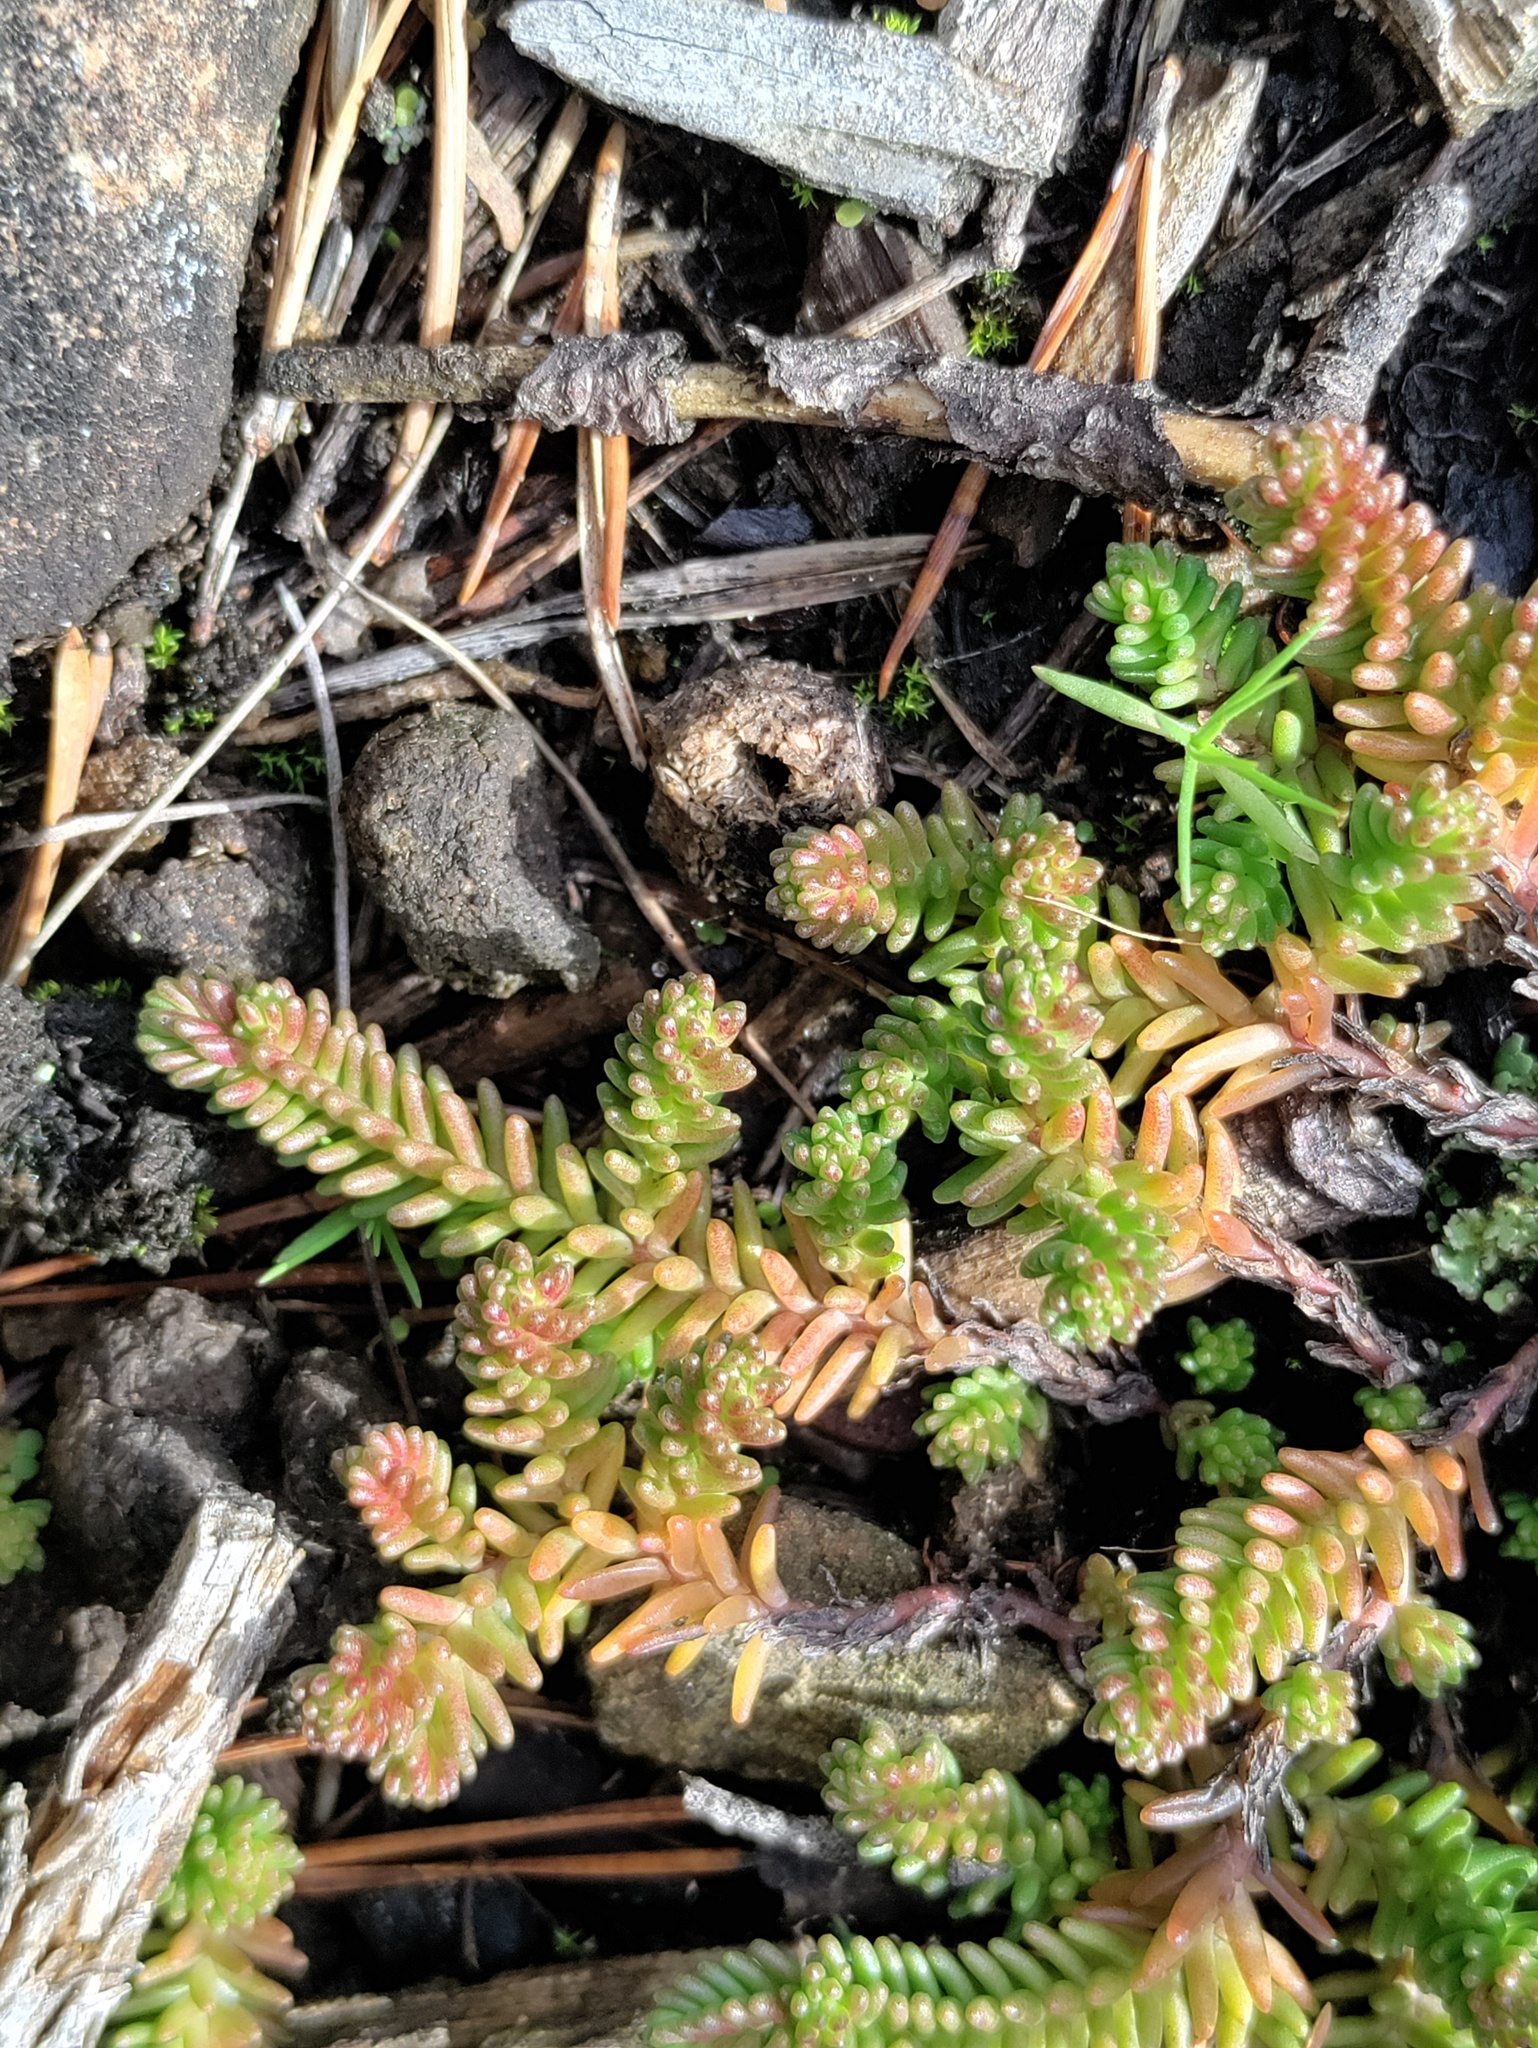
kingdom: Plantae
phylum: Tracheophyta
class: Magnoliopsida
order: Saxifragales
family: Crassulaceae
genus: Sedum
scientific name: Sedum sexangulare
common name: Tasteless stonecrop
